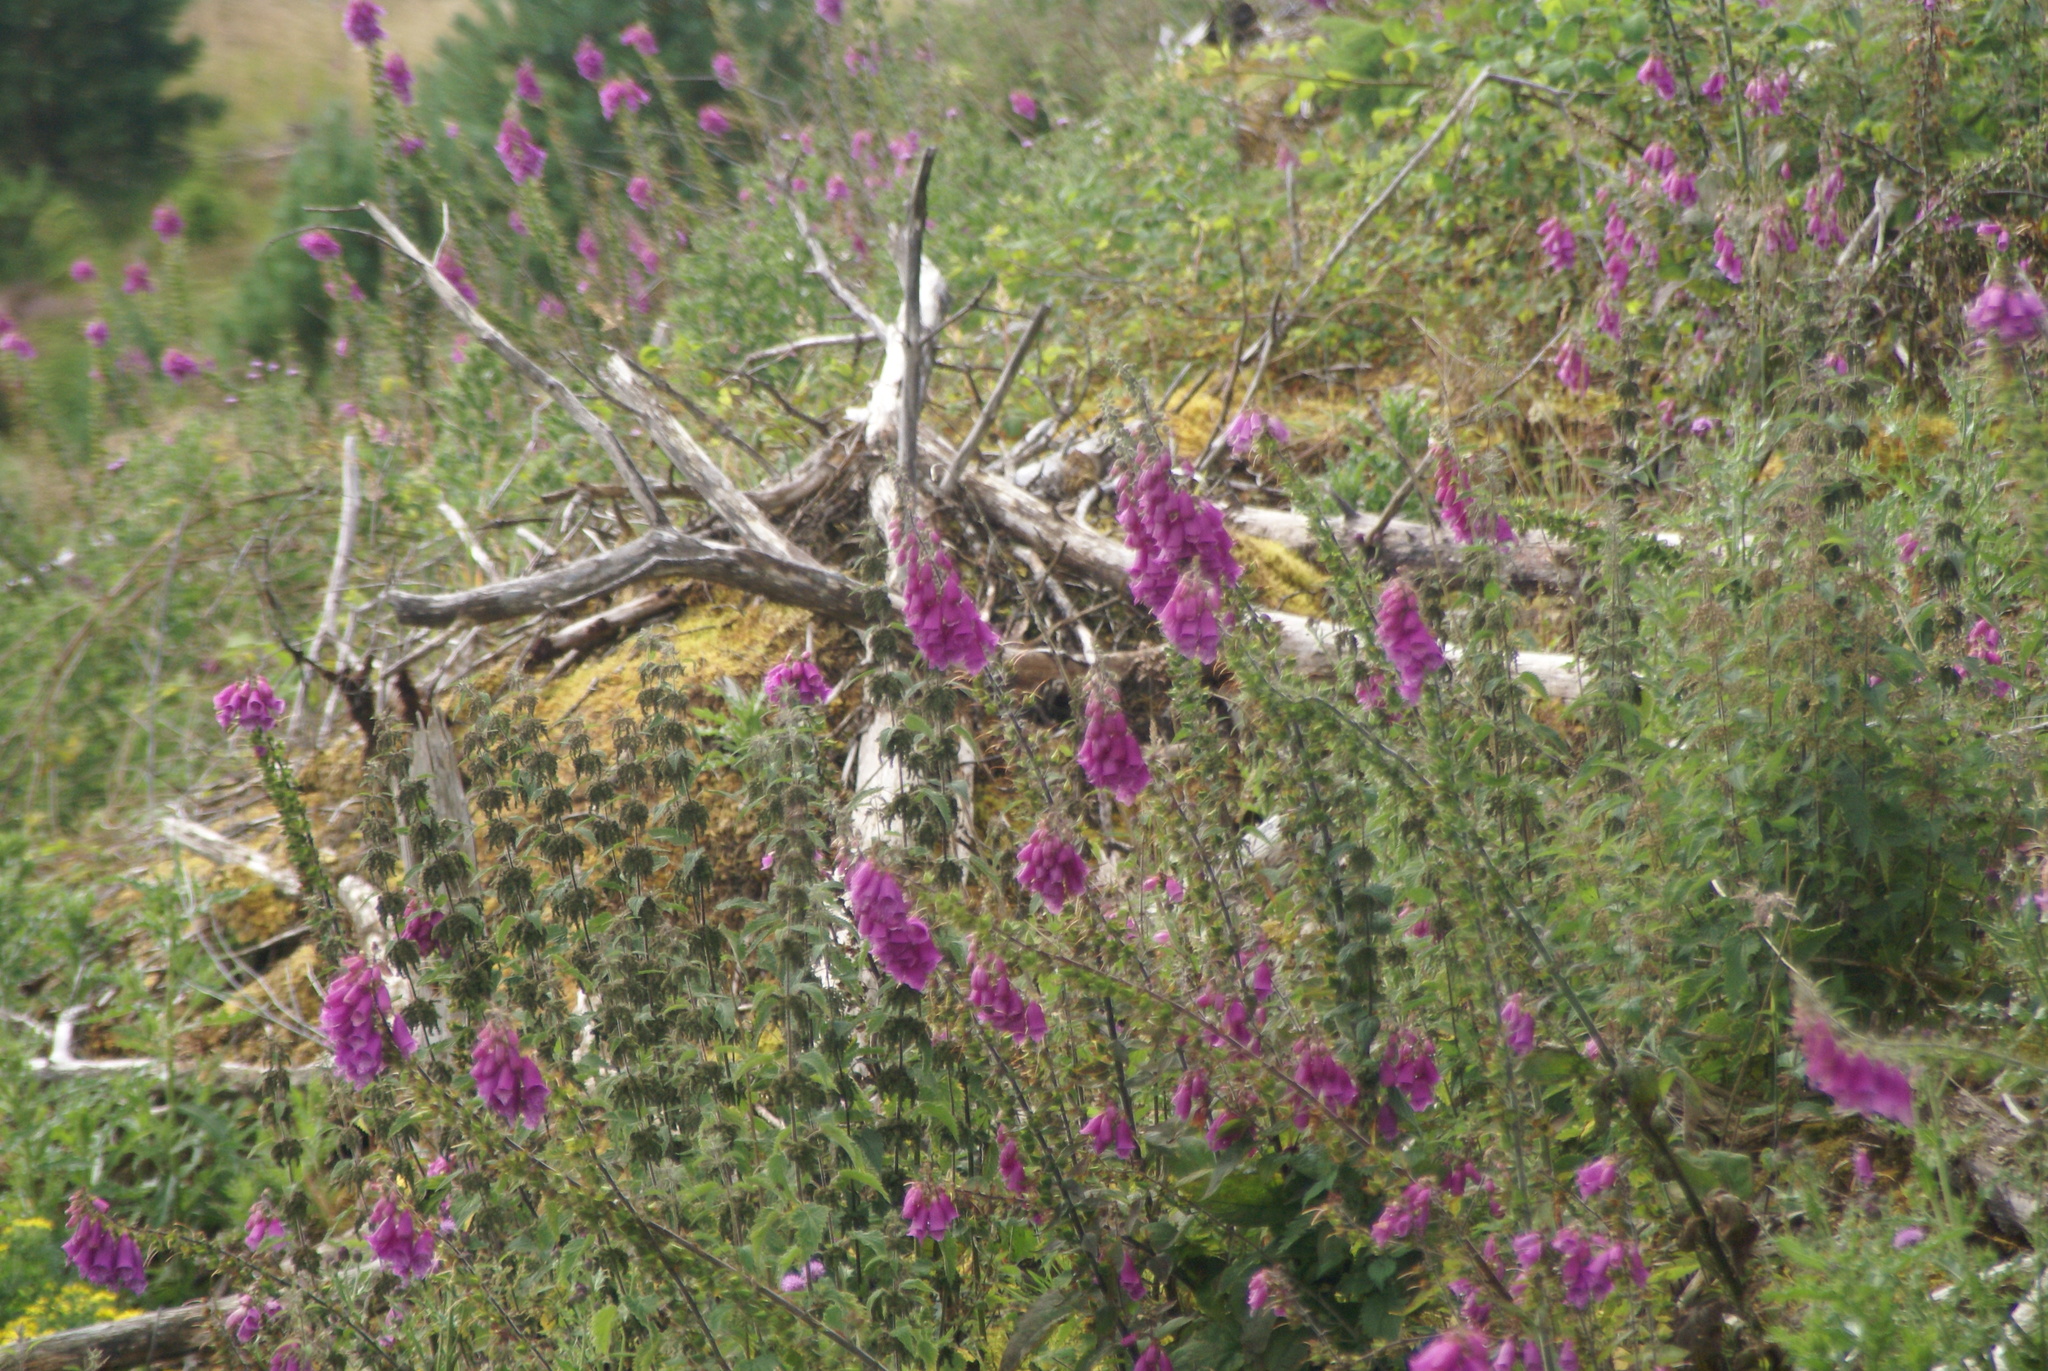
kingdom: Plantae
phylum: Tracheophyta
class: Magnoliopsida
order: Lamiales
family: Plantaginaceae
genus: Digitalis
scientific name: Digitalis purpurea
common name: Foxglove
